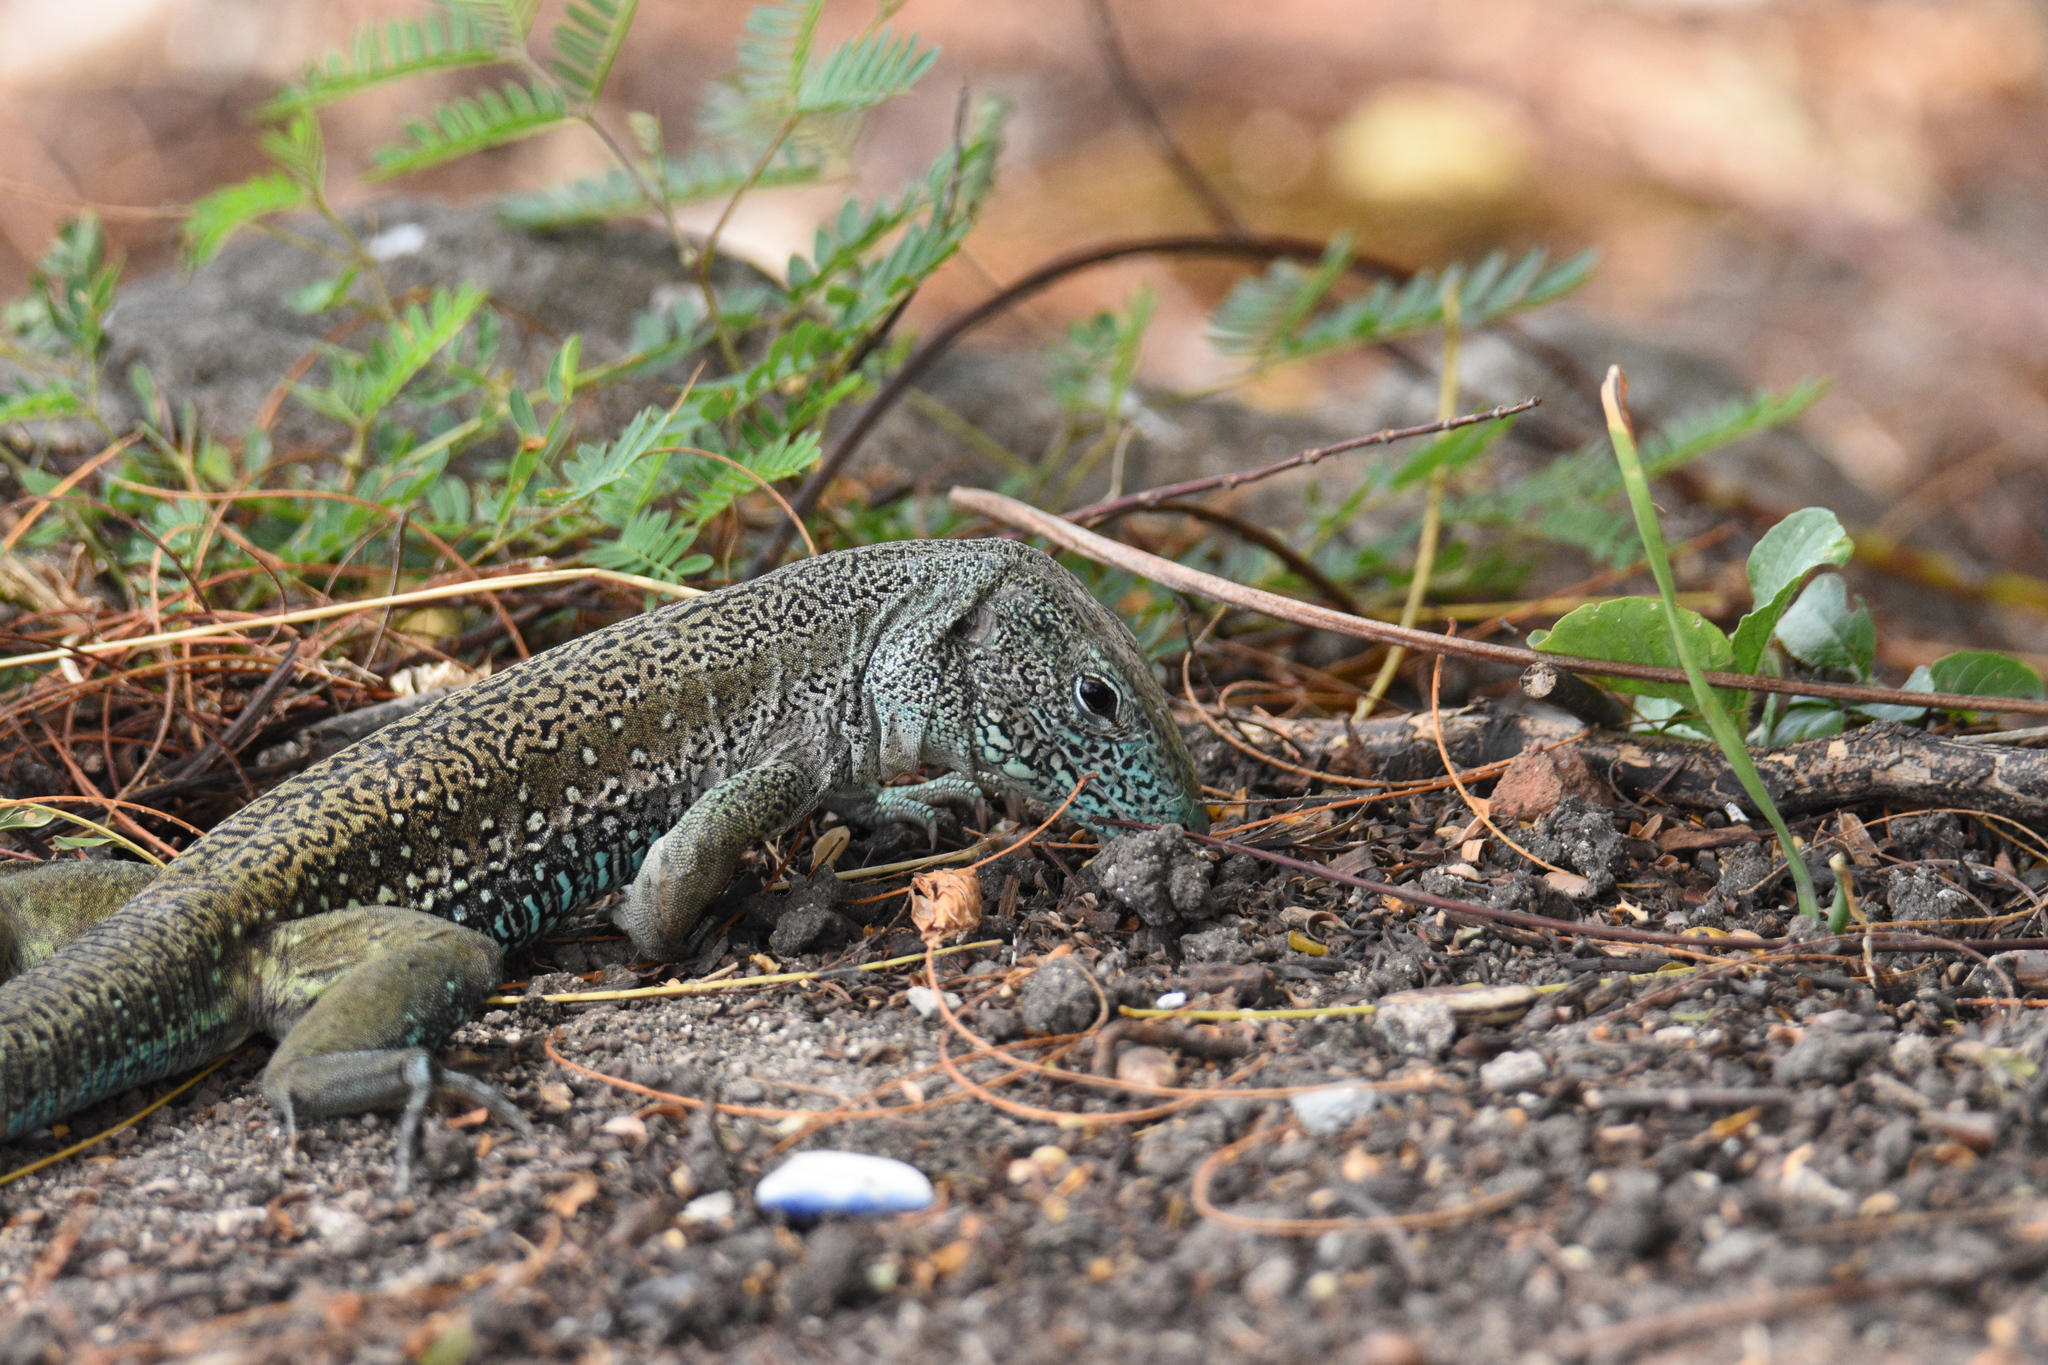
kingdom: Animalia
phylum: Chordata
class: Squamata
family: Teiidae
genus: Ameiva
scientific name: Ameiva tobagana
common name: Antillean ameiva
